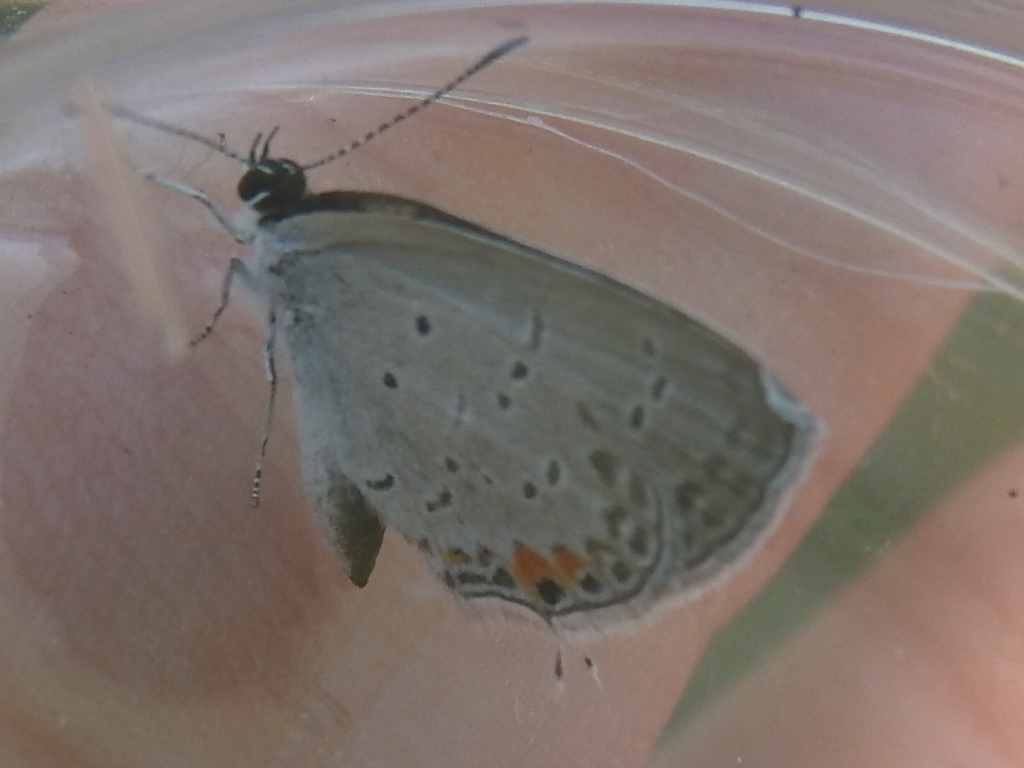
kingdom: Animalia
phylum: Arthropoda
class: Insecta
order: Lepidoptera
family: Lycaenidae
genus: Elkalyce
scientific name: Elkalyce comyntas
